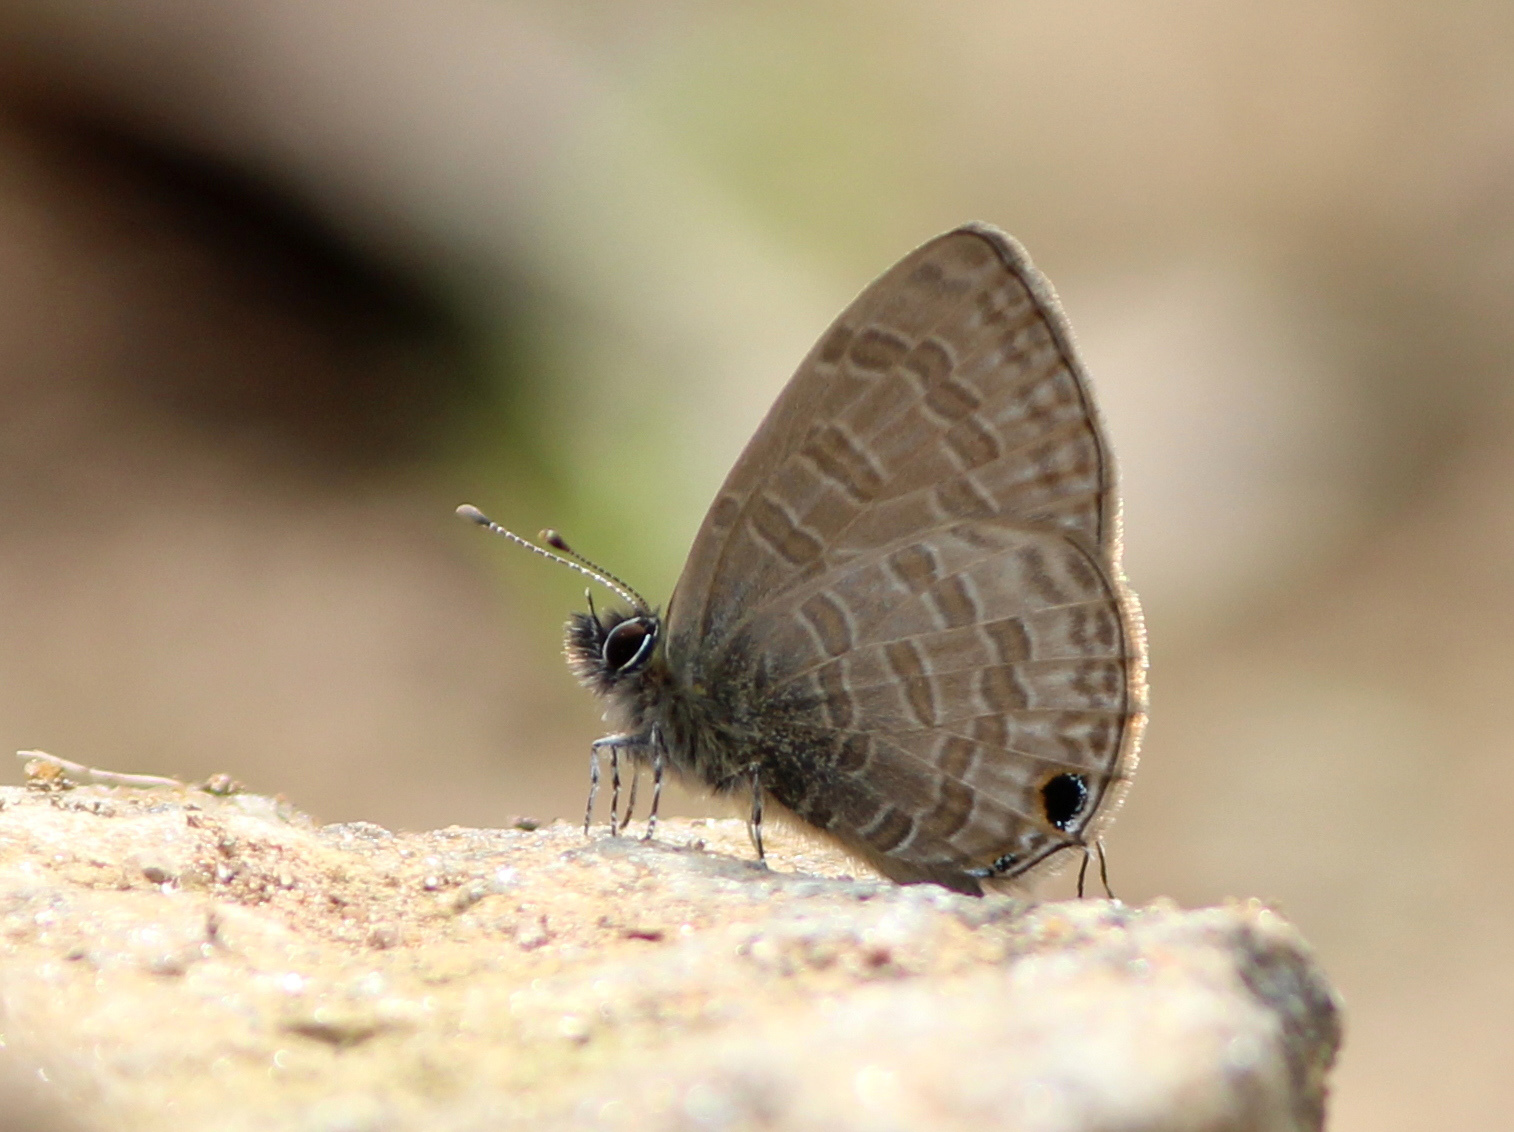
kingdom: Animalia
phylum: Arthropoda
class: Insecta
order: Lepidoptera
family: Lycaenidae
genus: Prosotas
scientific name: Prosotas nora
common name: Common line blue
